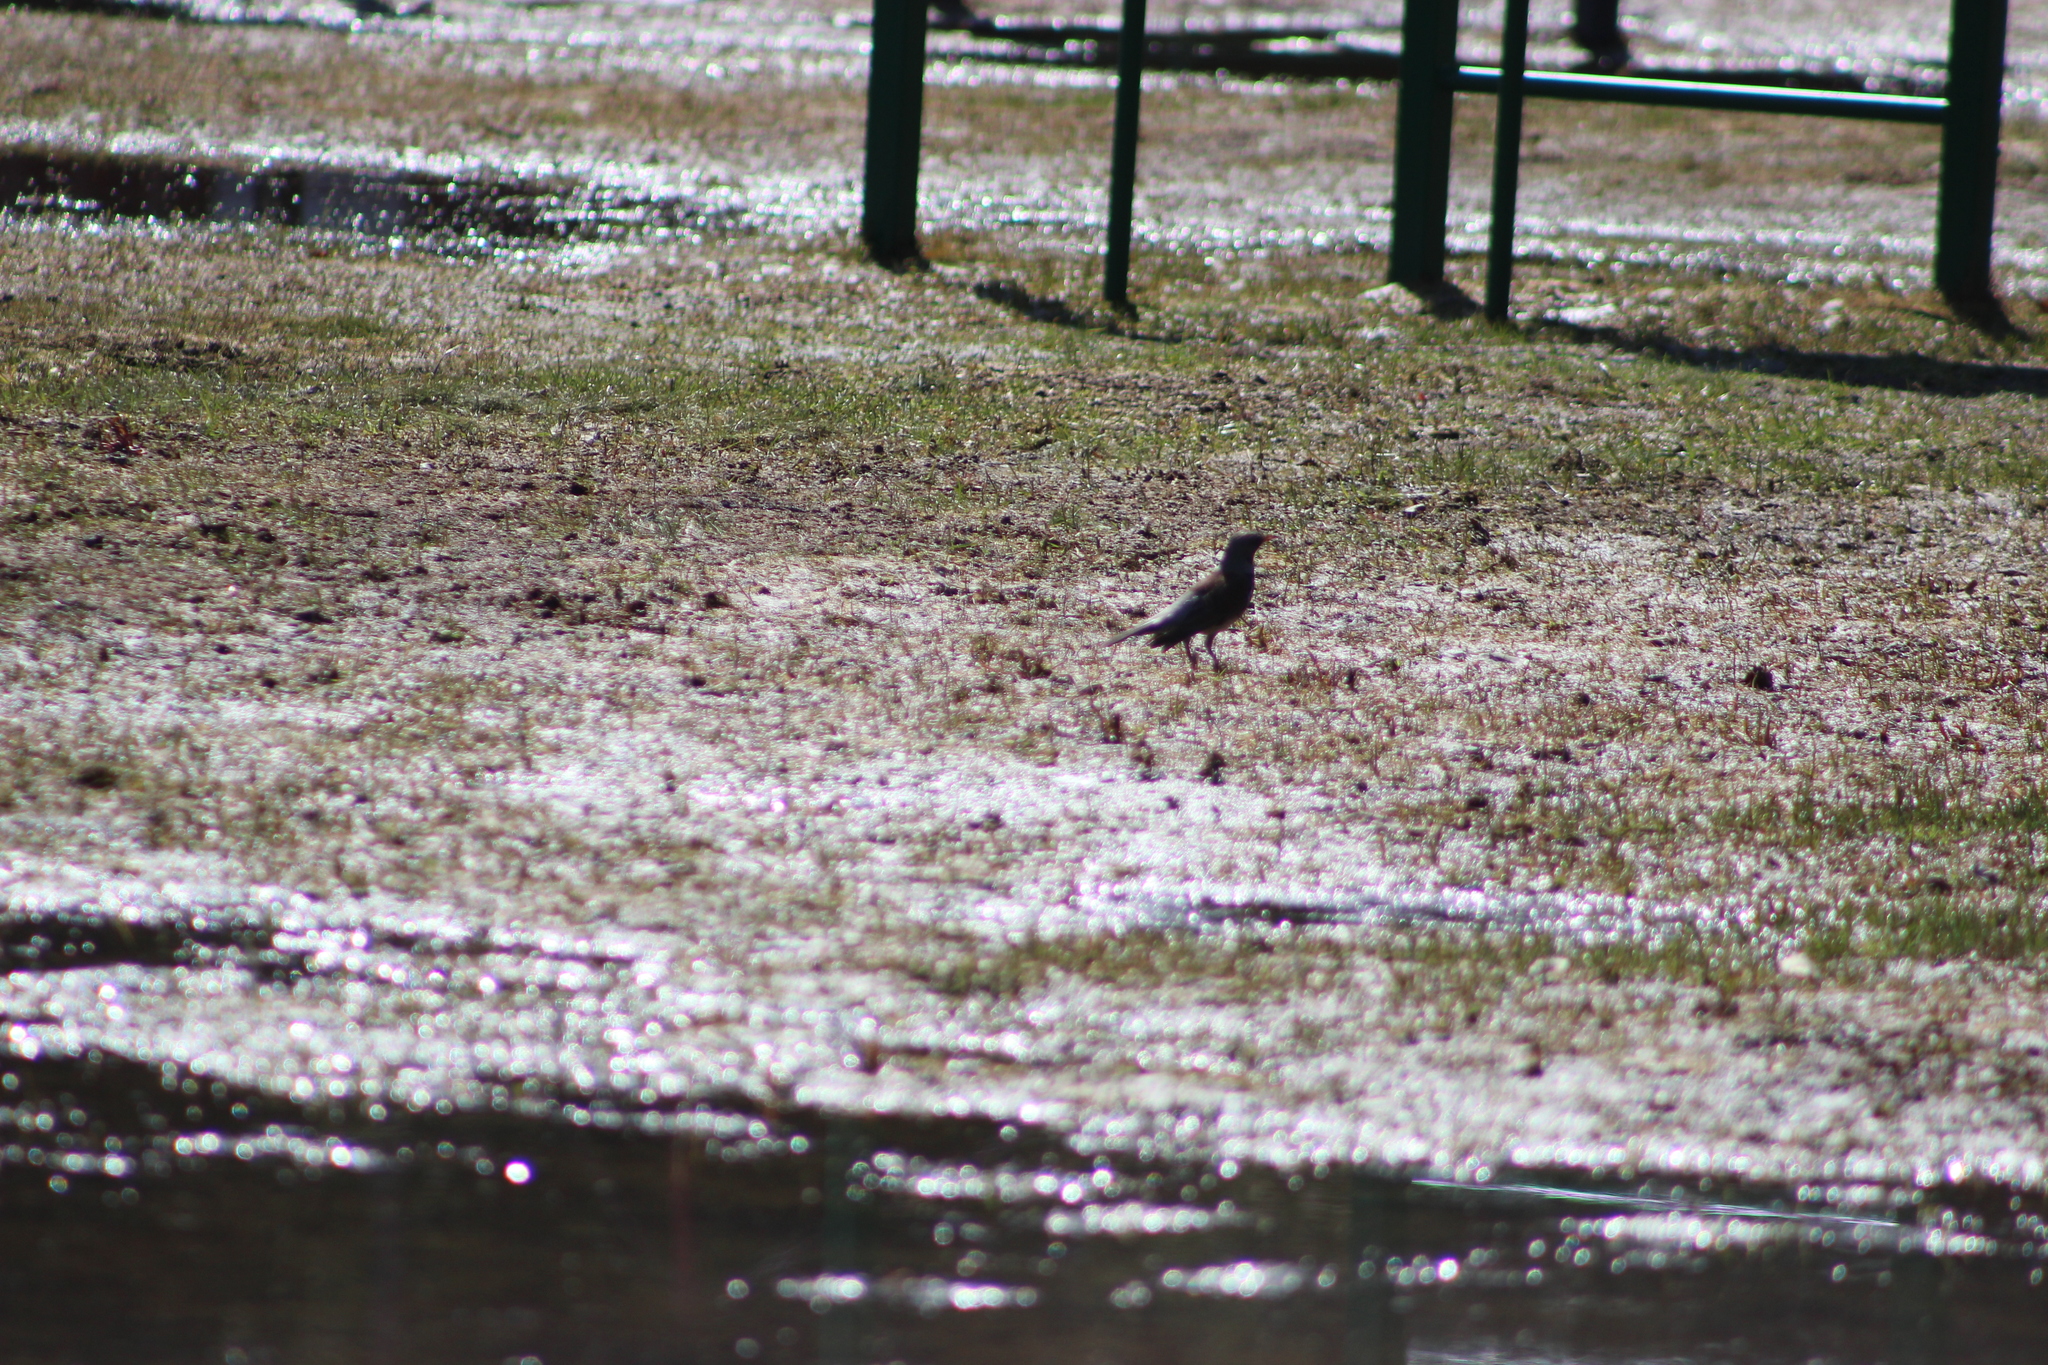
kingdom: Animalia
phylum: Chordata
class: Aves
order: Passeriformes
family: Turdidae
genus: Turdus
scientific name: Turdus pilaris
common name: Fieldfare
